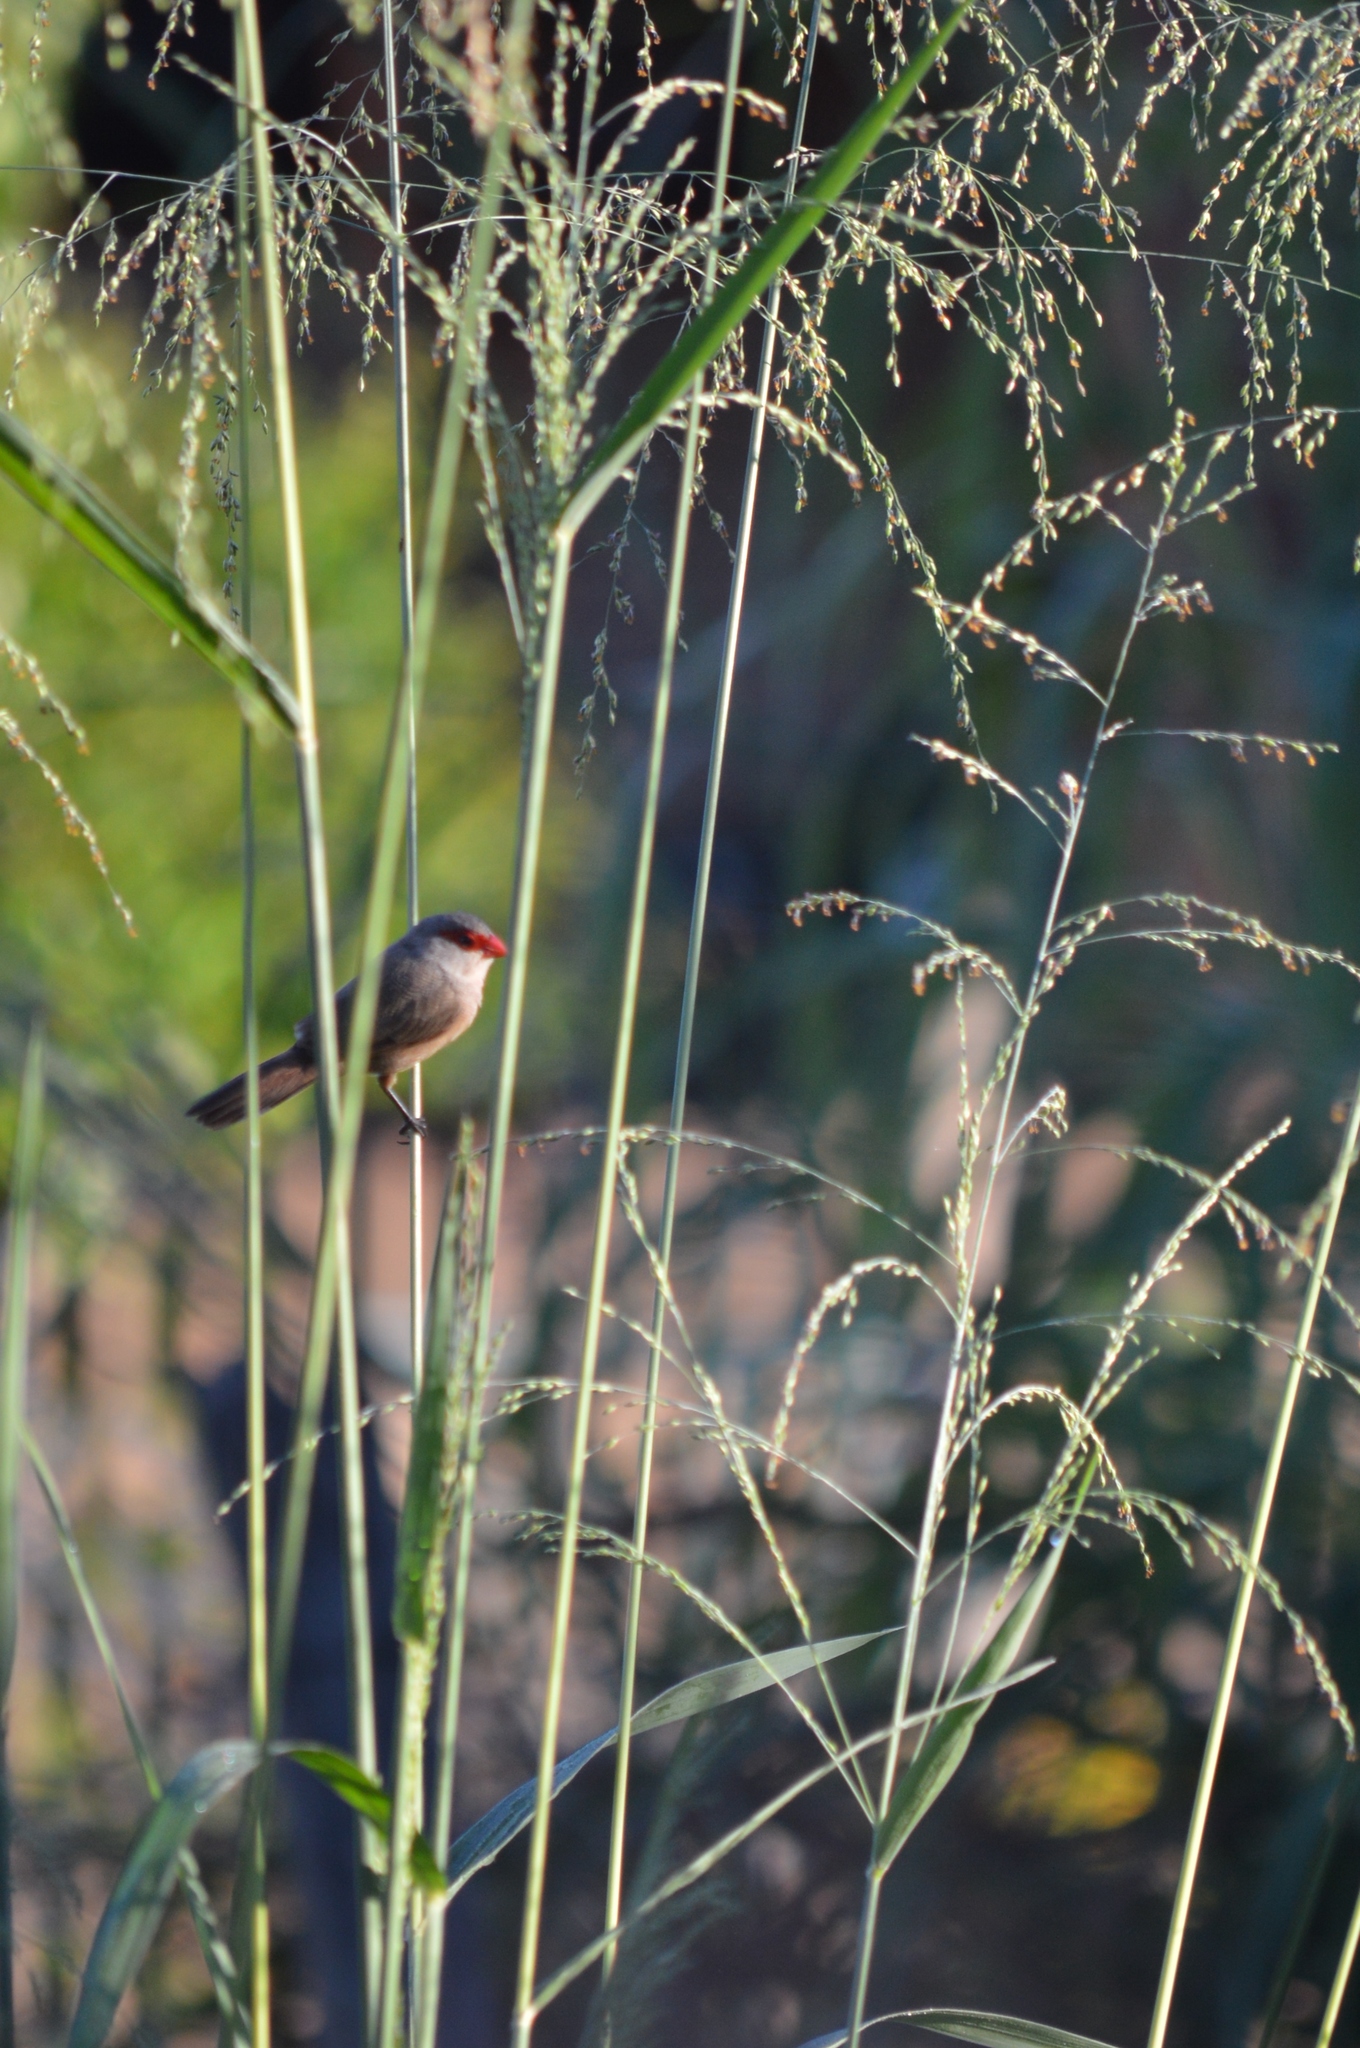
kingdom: Animalia
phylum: Chordata
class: Aves
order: Passeriformes
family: Estrildidae
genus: Estrilda
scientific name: Estrilda astrild
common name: Common waxbill
